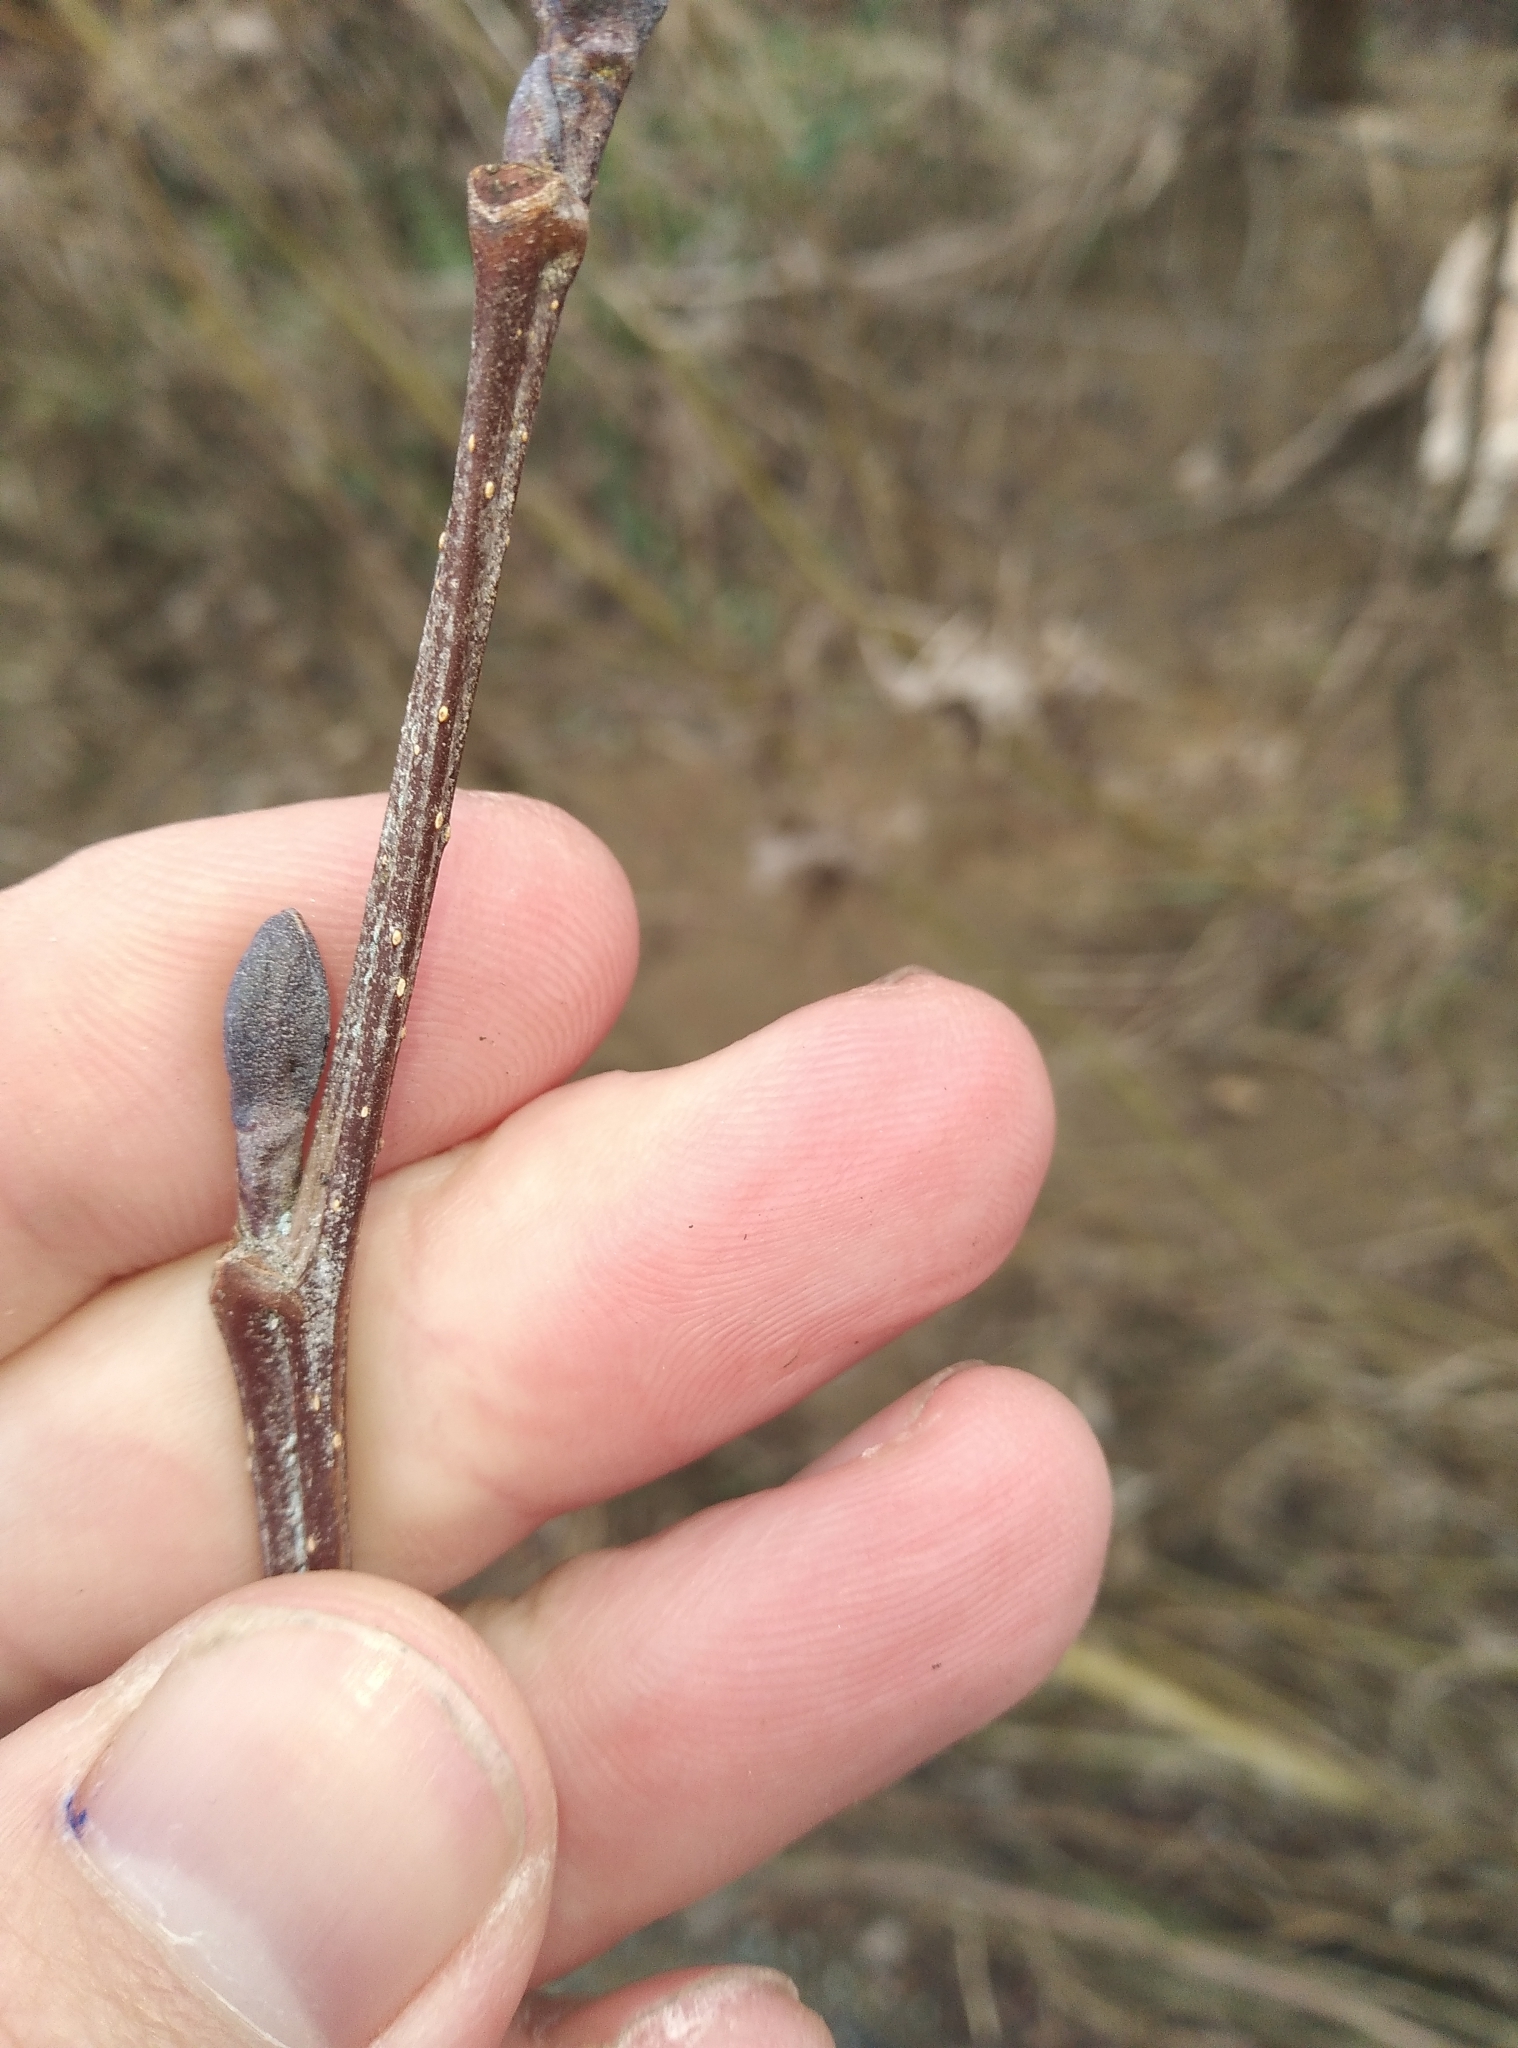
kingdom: Plantae
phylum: Tracheophyta
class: Magnoliopsida
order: Fagales
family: Betulaceae
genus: Alnus
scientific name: Alnus glutinosa
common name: Black alder
